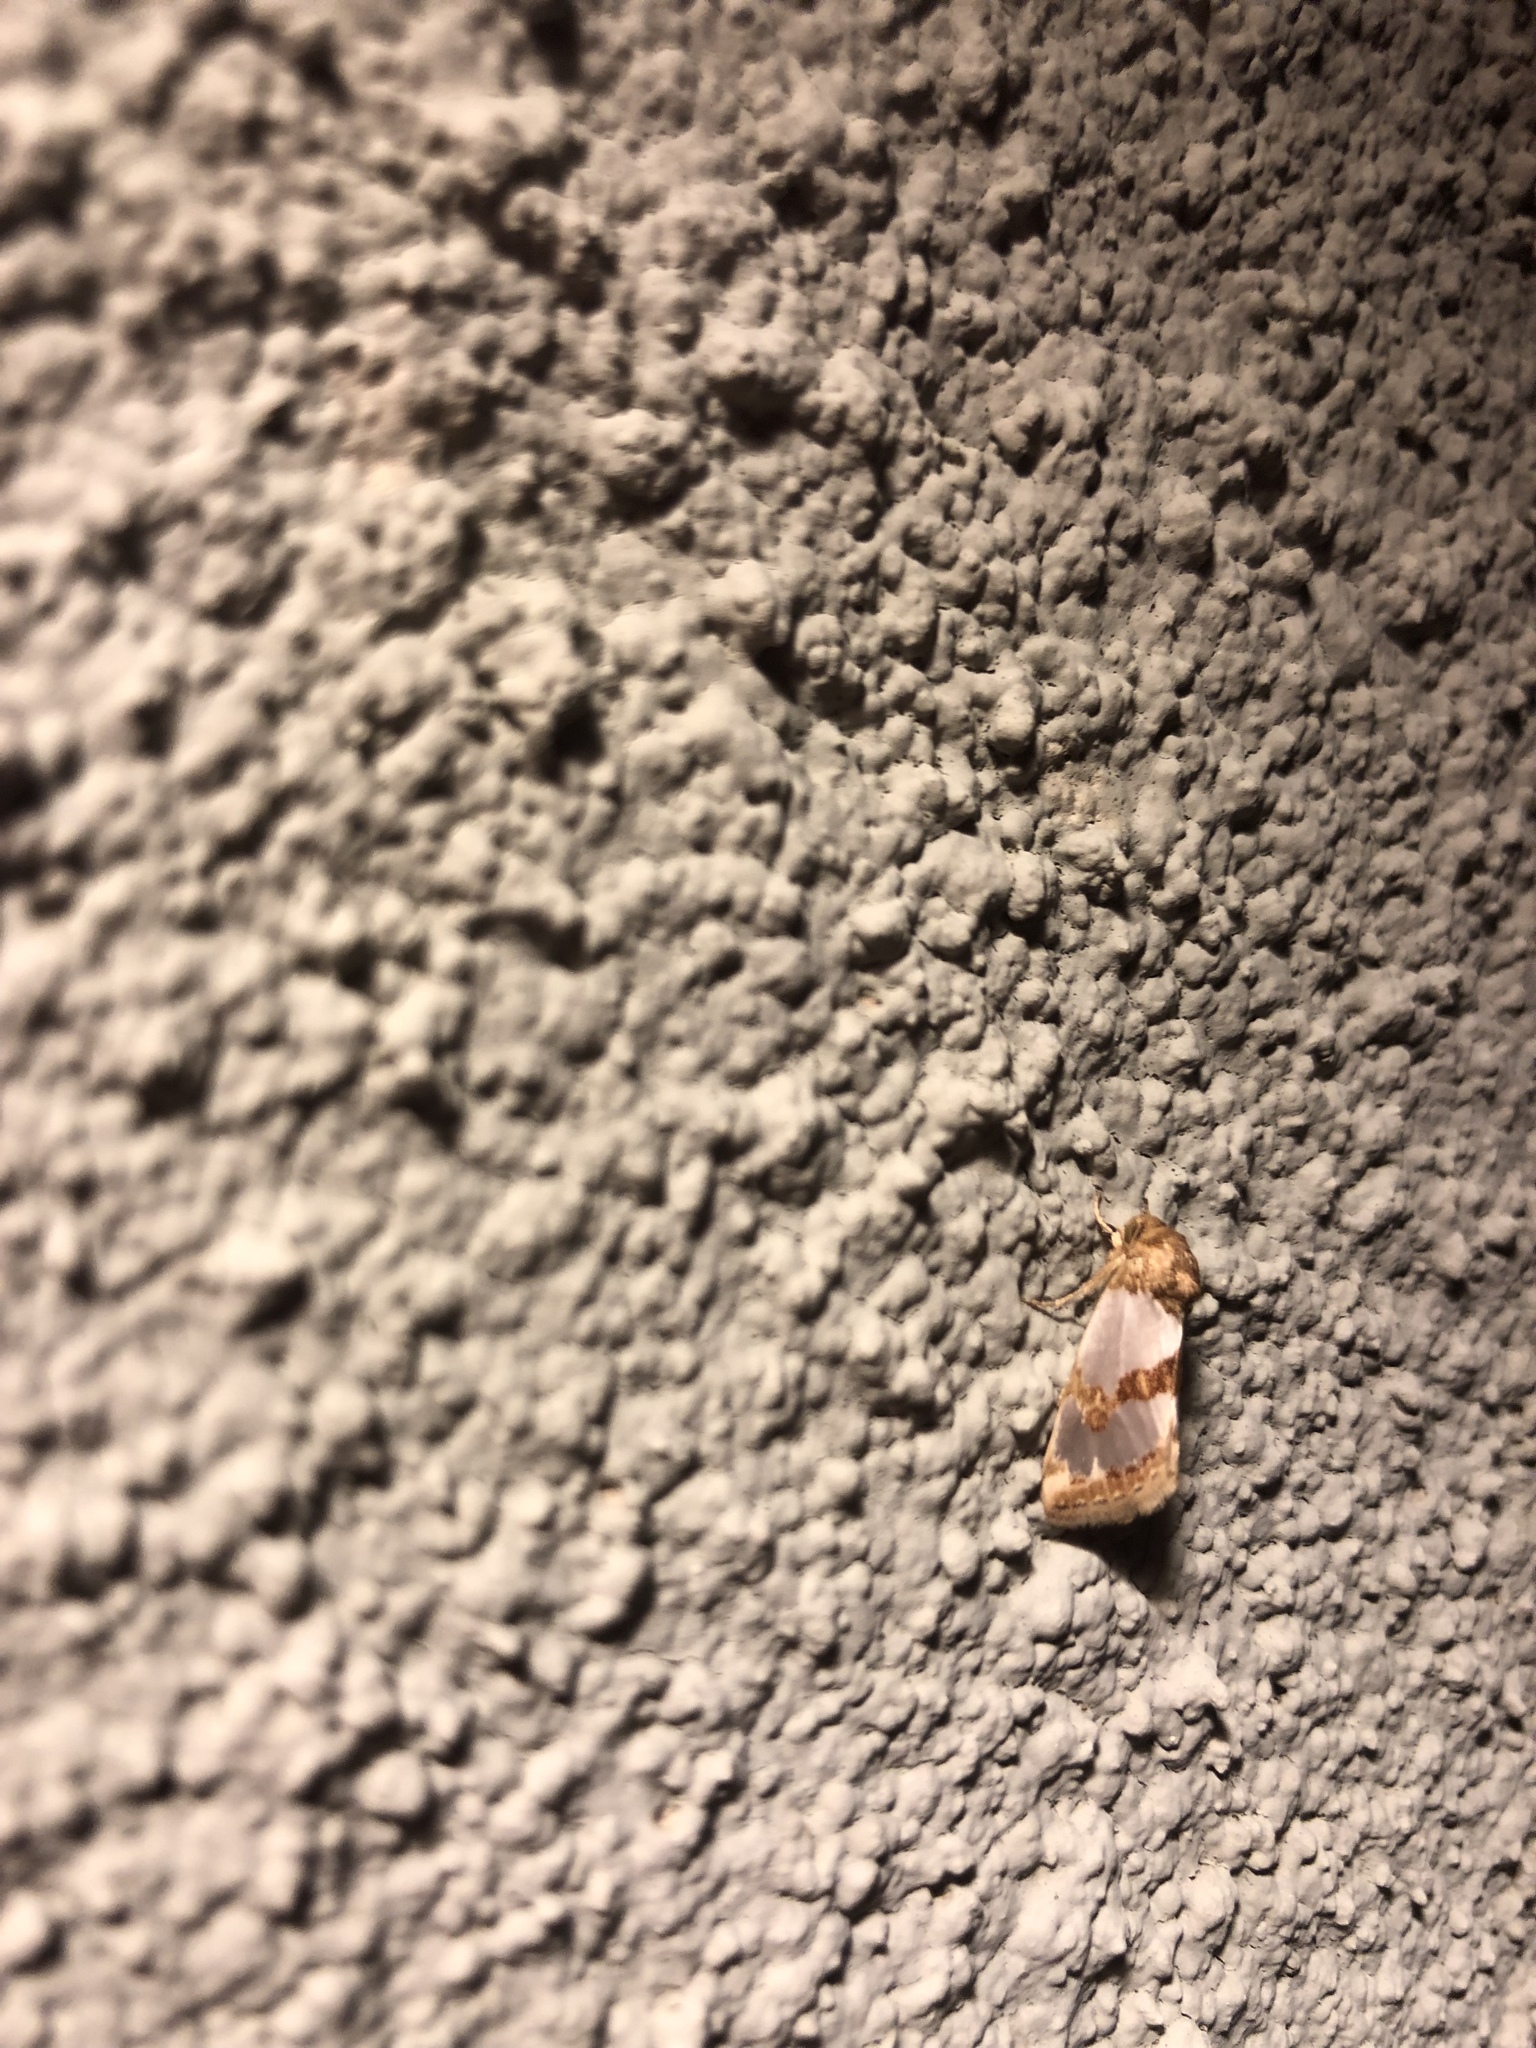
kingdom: Animalia
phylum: Arthropoda
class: Insecta
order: Lepidoptera
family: Noctuidae
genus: Schinia
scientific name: Schinia chrysellus
